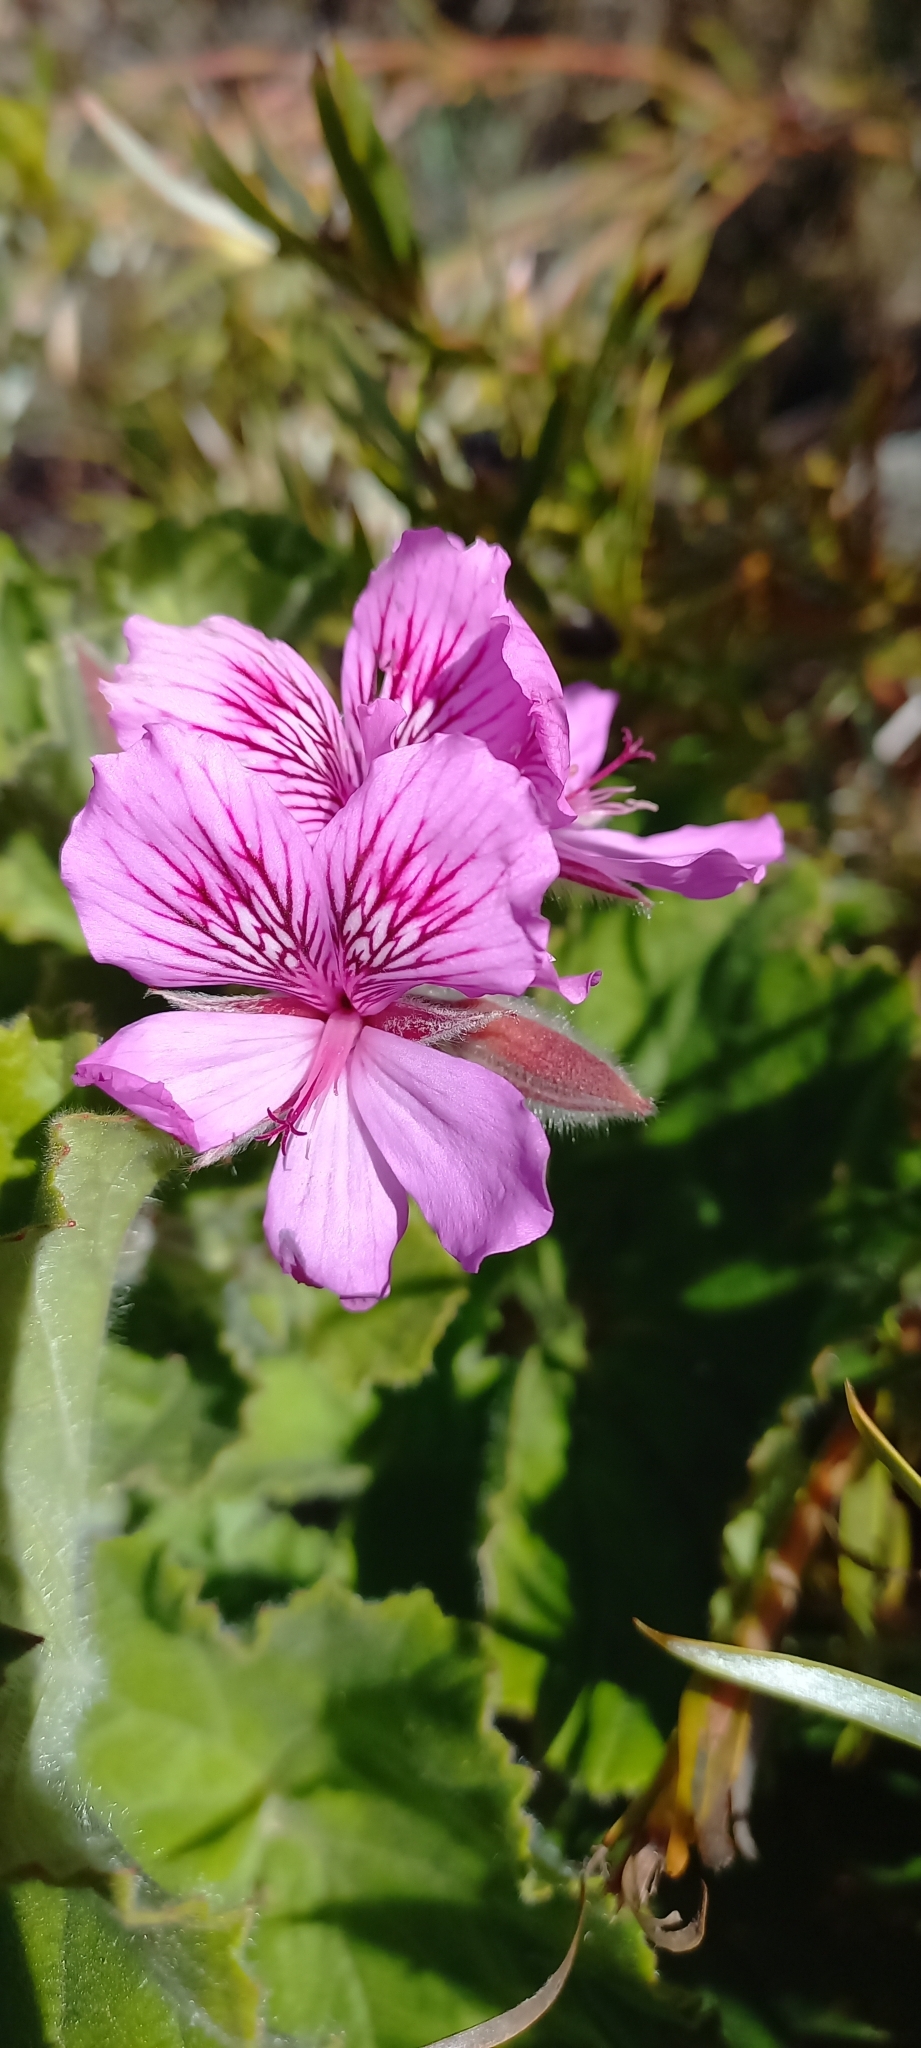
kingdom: Plantae
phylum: Tracheophyta
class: Magnoliopsida
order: Geraniales
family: Geraniaceae
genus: Pelargonium
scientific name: Pelargonium cucullatum
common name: Tree pelargonium
